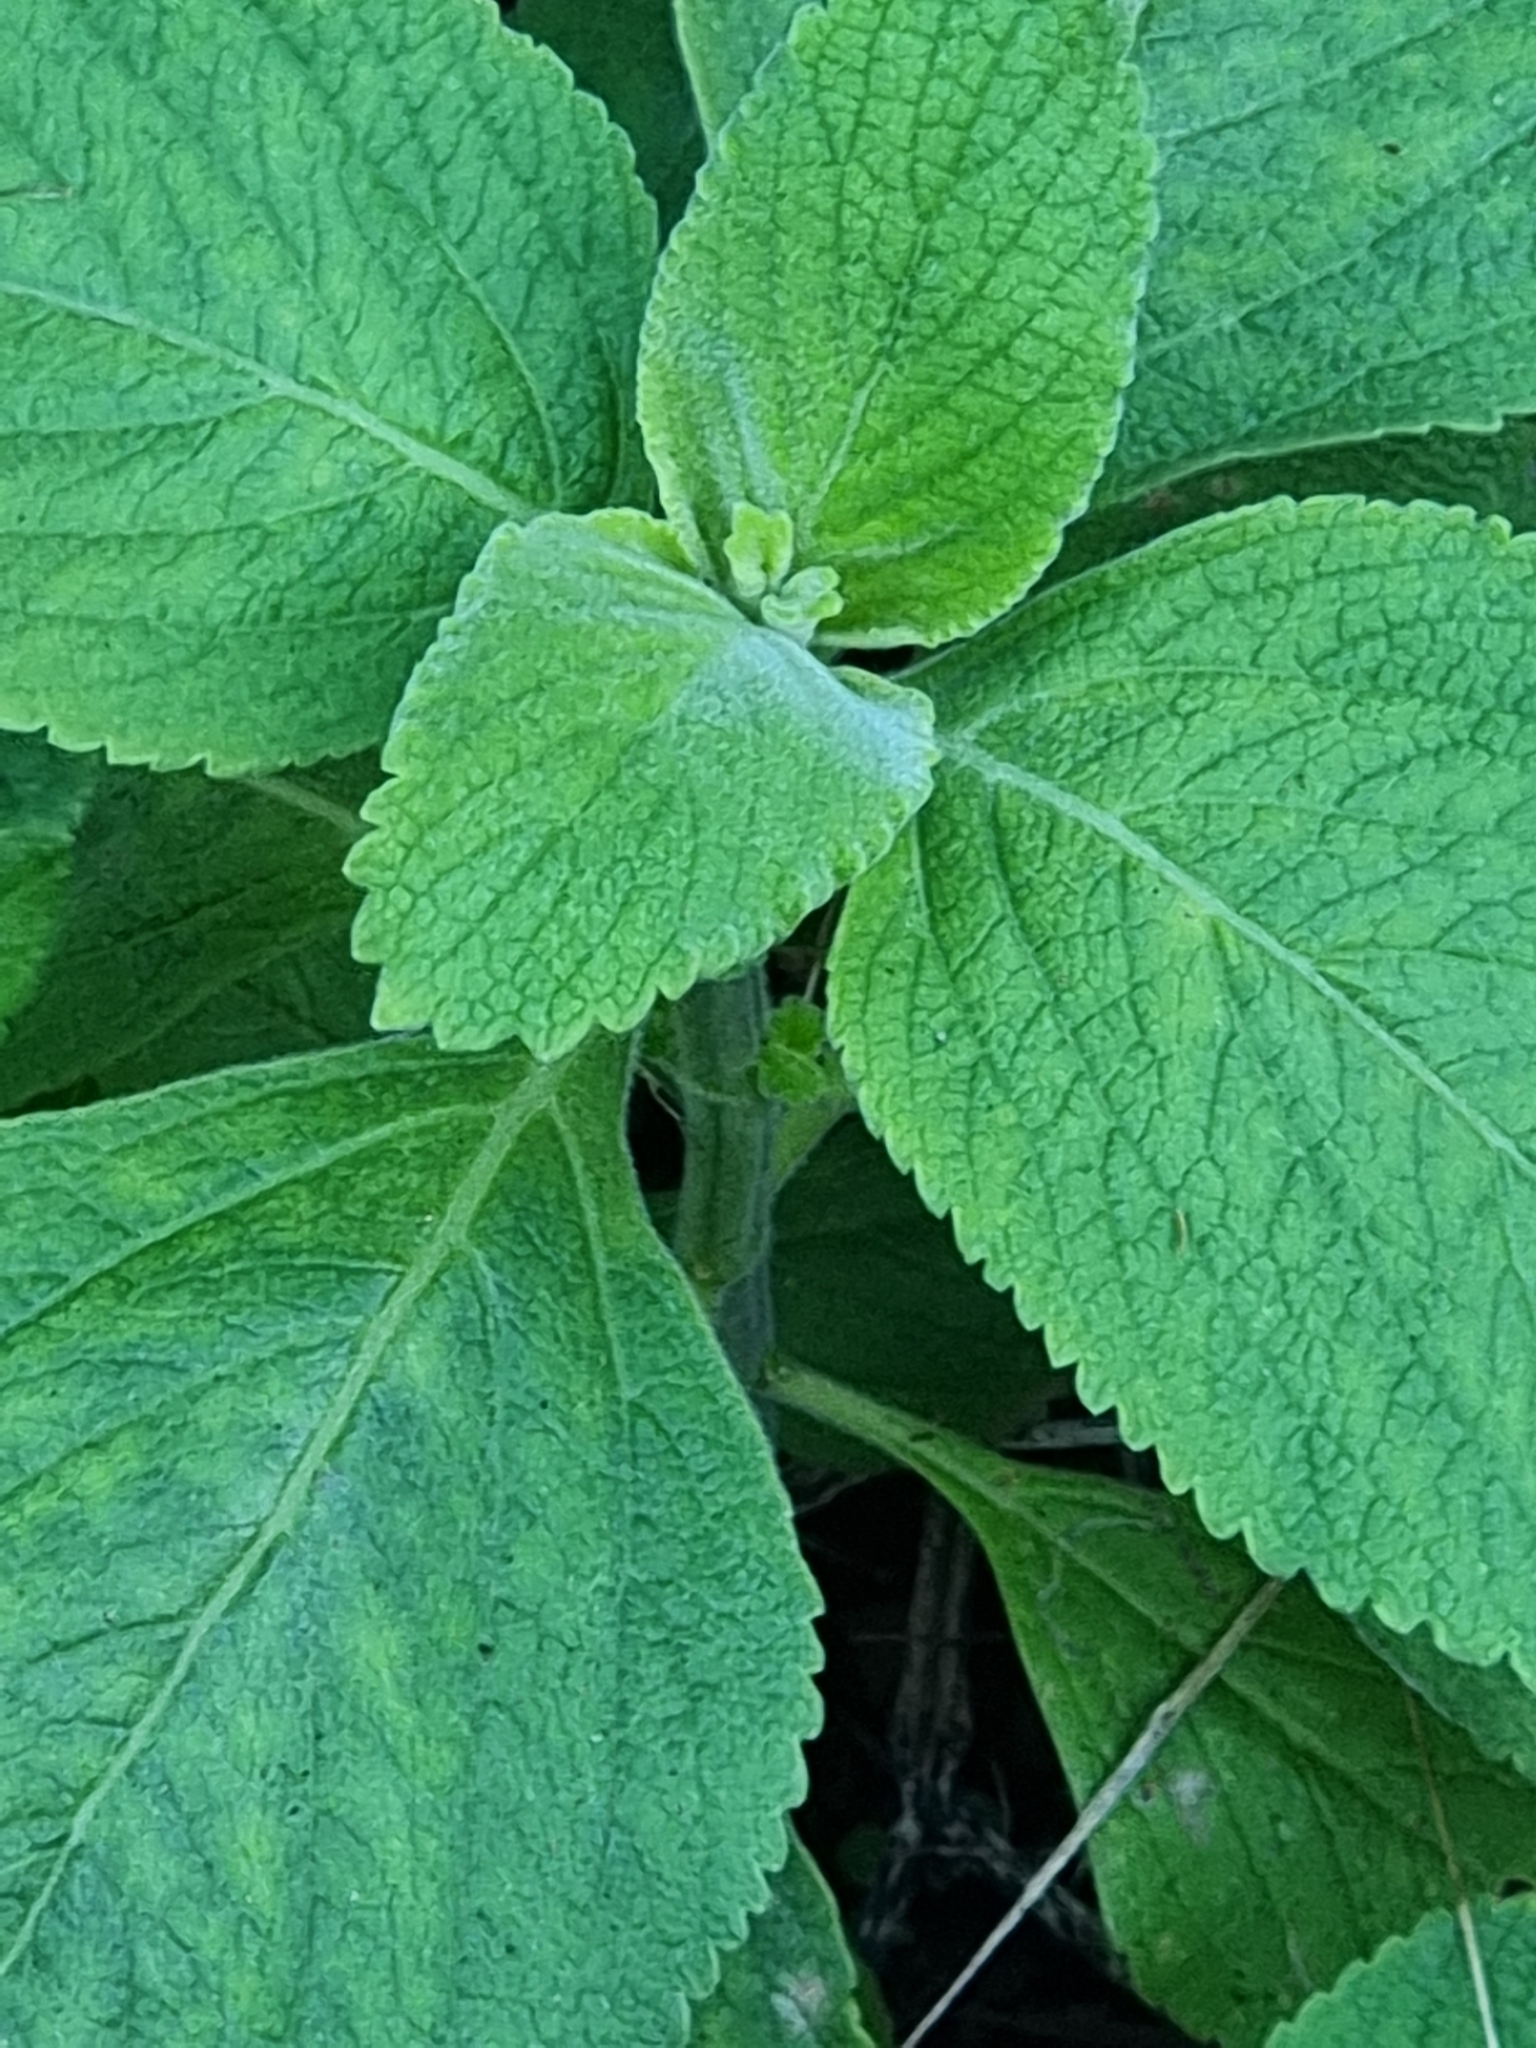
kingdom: Plantae
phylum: Tracheophyta
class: Magnoliopsida
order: Lamiales
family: Lamiaceae
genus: Coleus
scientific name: Coleus barbatus
